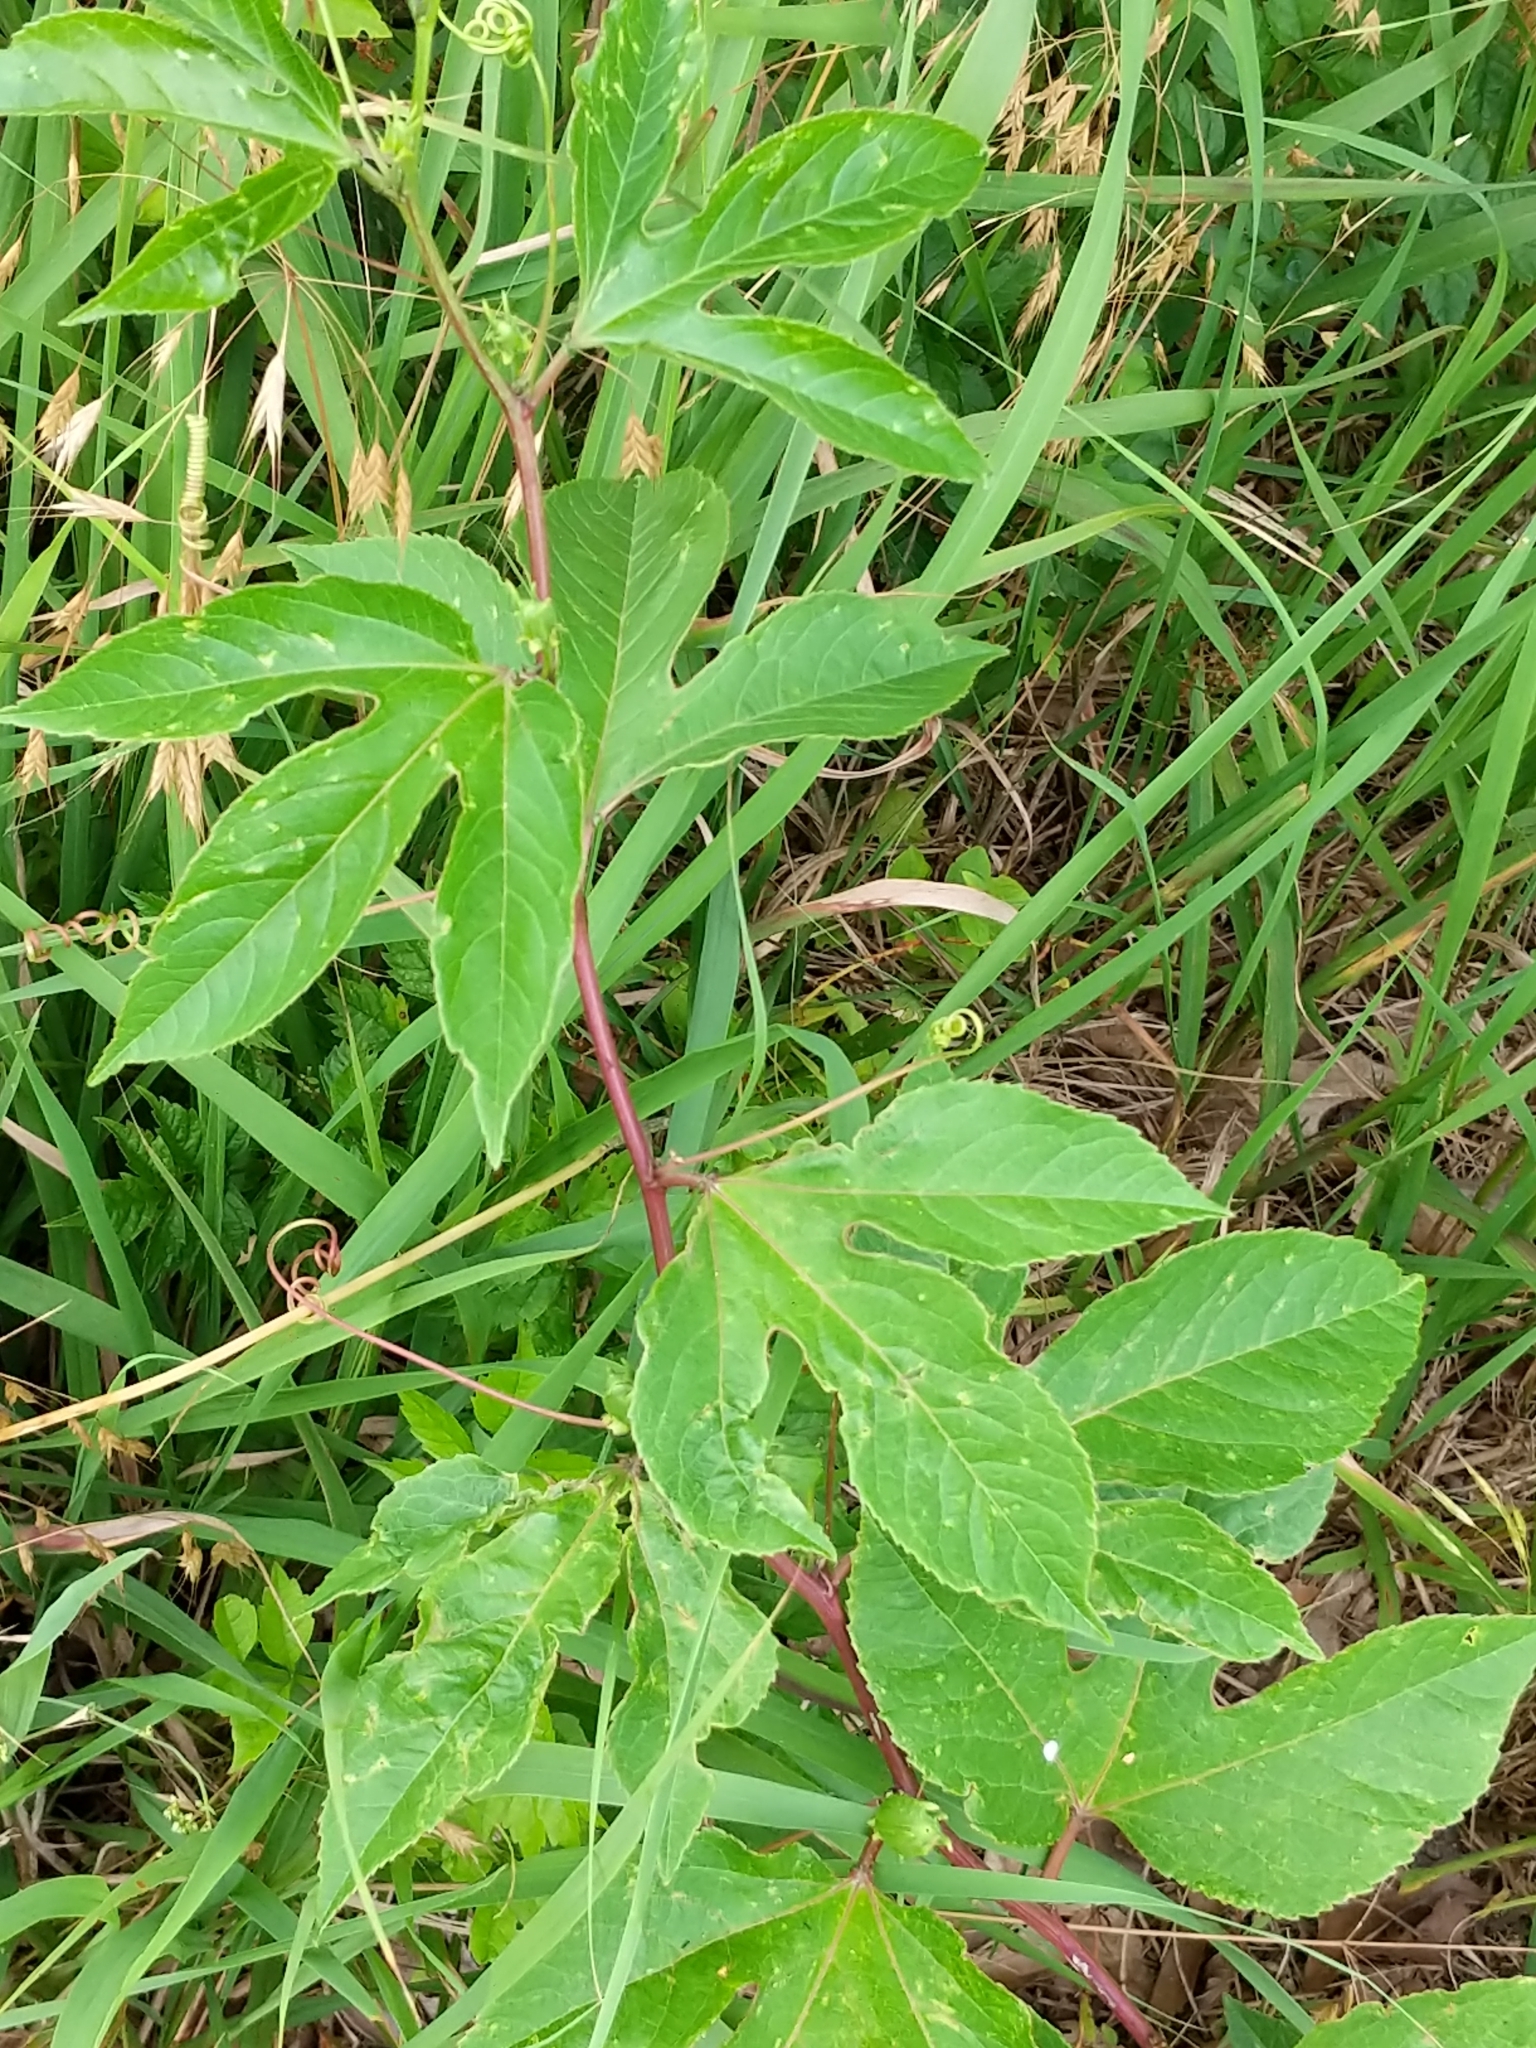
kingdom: Plantae
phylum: Tracheophyta
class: Magnoliopsida
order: Malpighiales
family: Passifloraceae
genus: Passiflora
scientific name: Passiflora incarnata
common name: Apricot-vine
